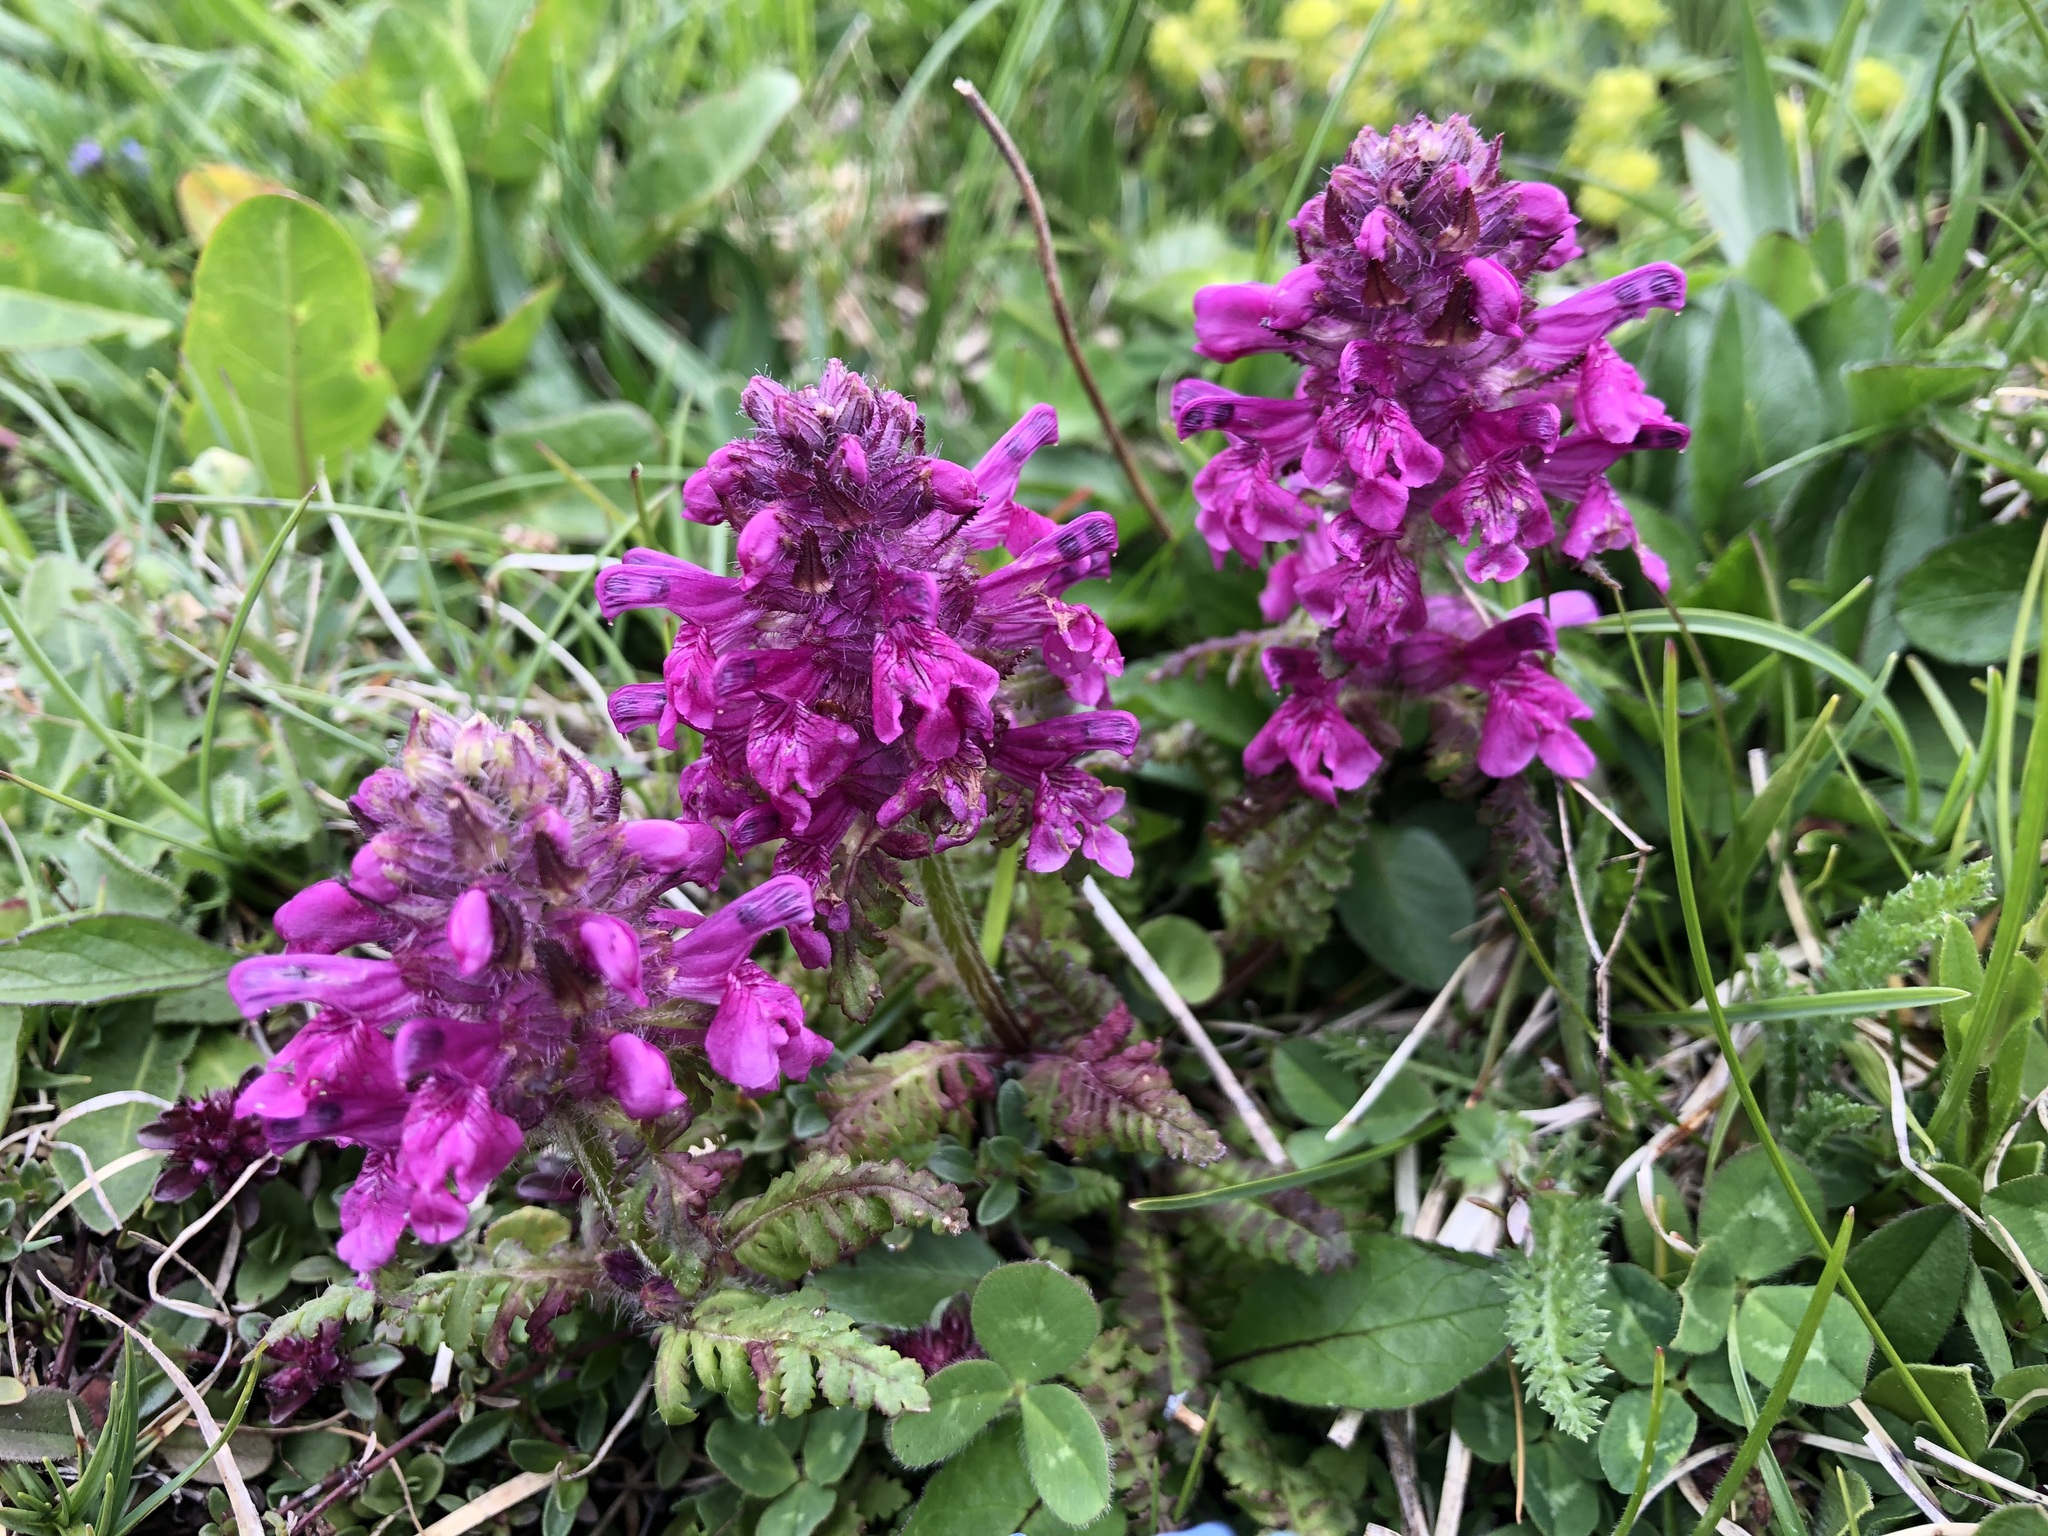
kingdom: Plantae
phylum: Tracheophyta
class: Magnoliopsida
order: Lamiales
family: Orobanchaceae
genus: Pedicularis
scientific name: Pedicularis verticillata
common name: Whorled lousewort
